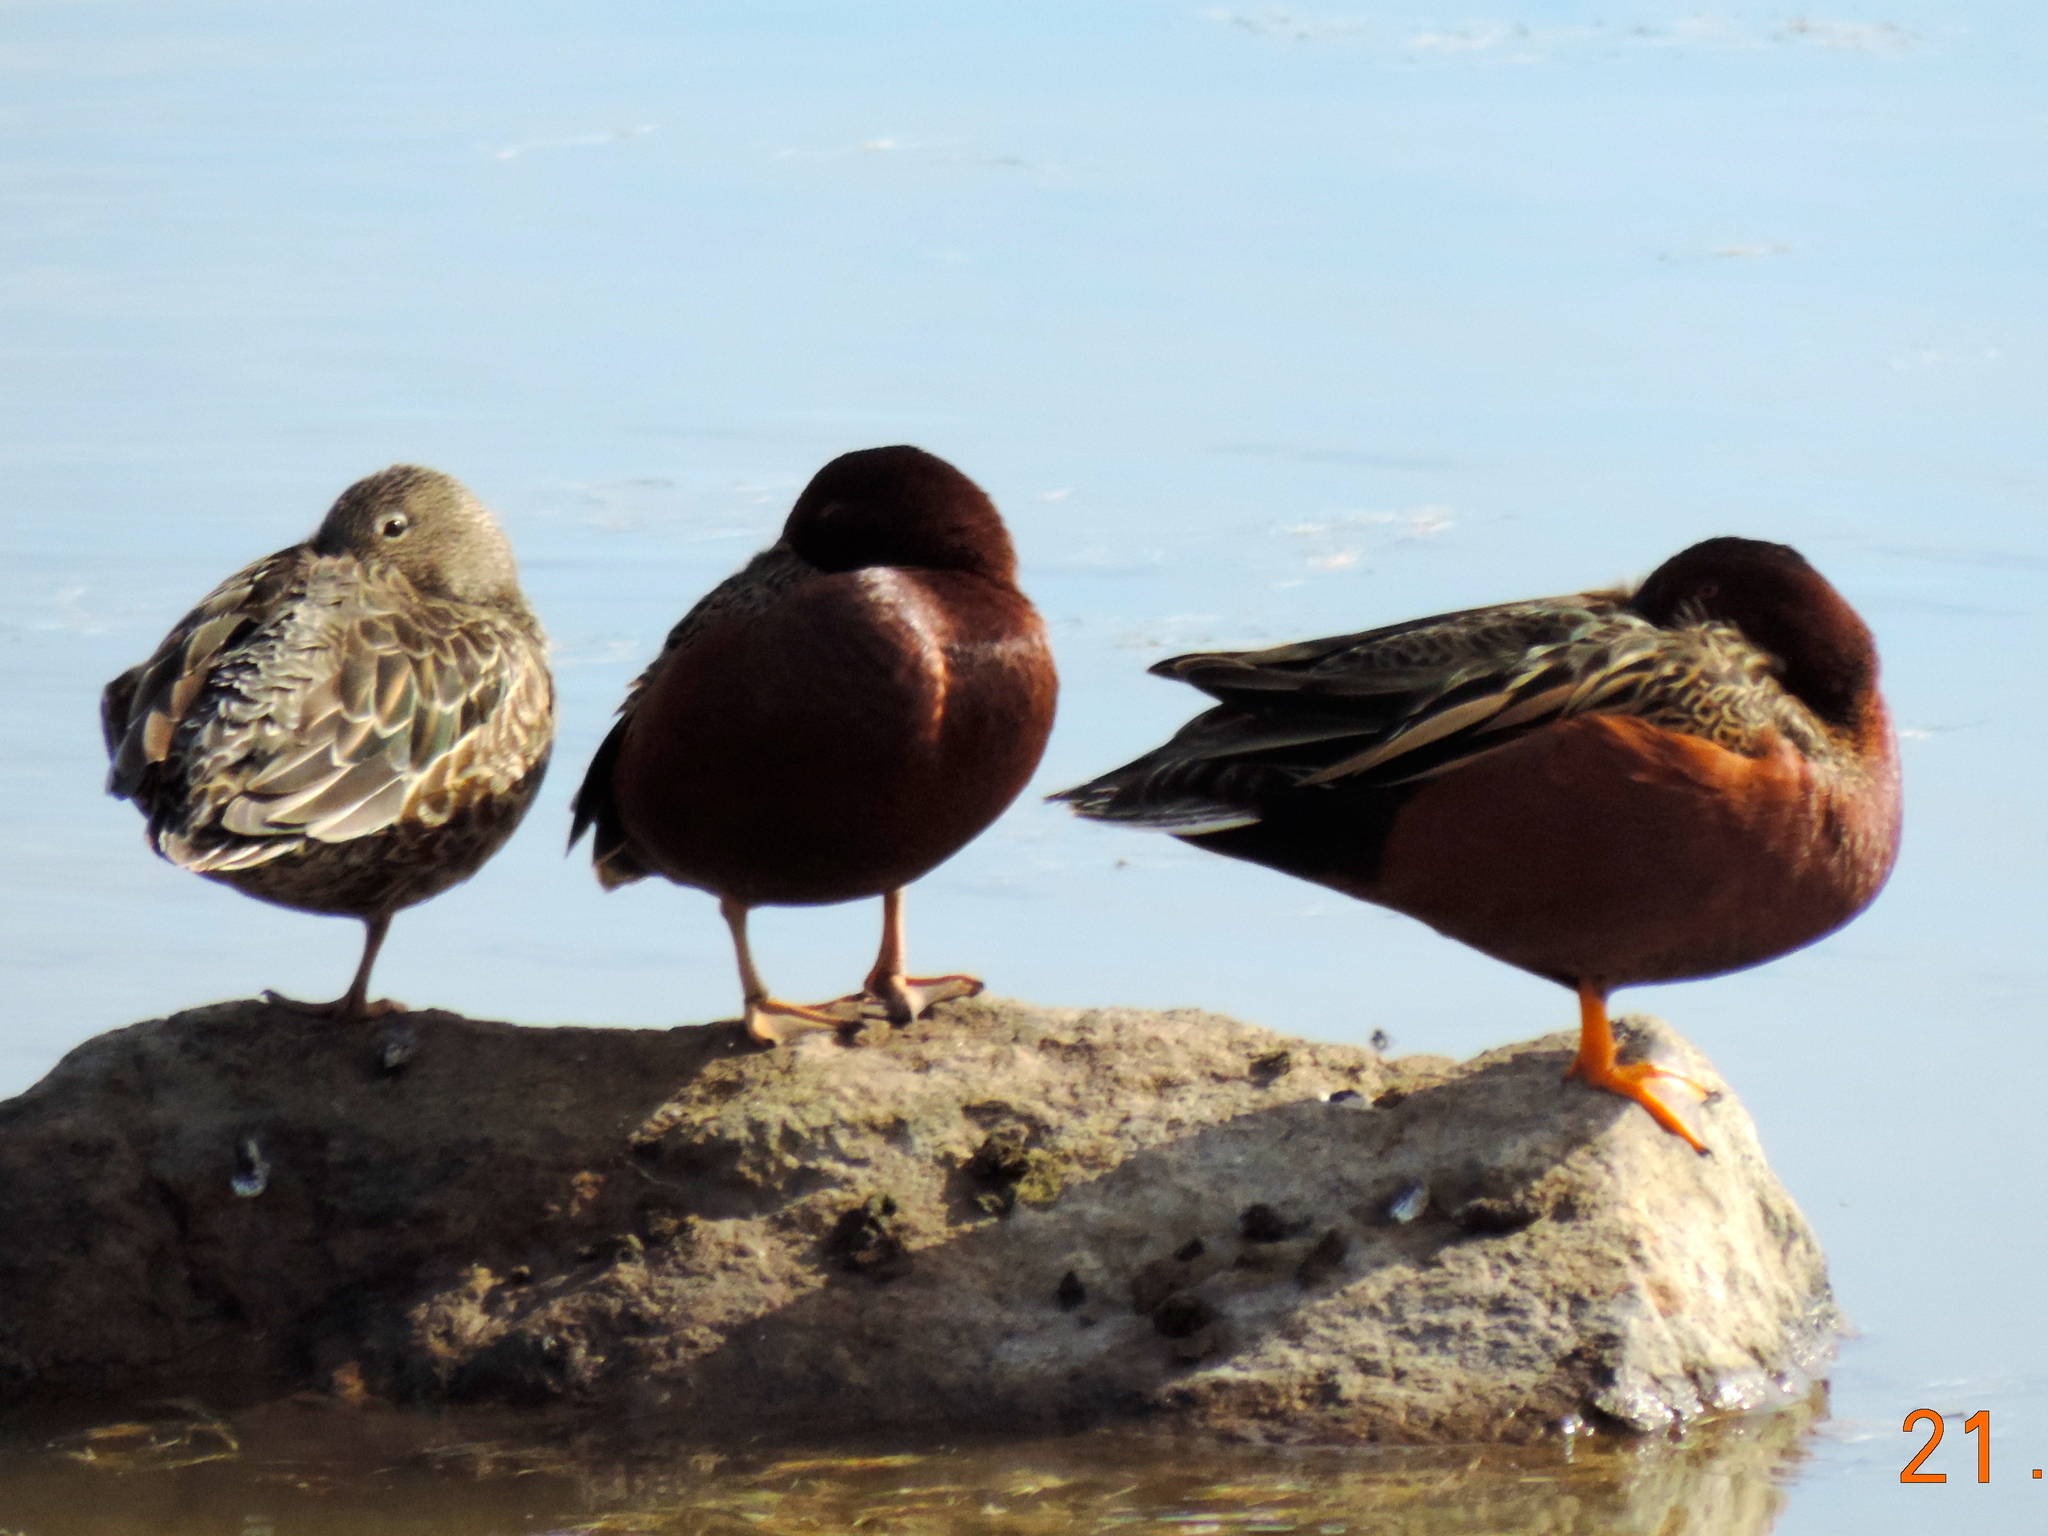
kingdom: Animalia
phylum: Chordata
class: Aves
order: Anseriformes
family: Anatidae
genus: Spatula
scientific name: Spatula cyanoptera
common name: Cinnamon teal
